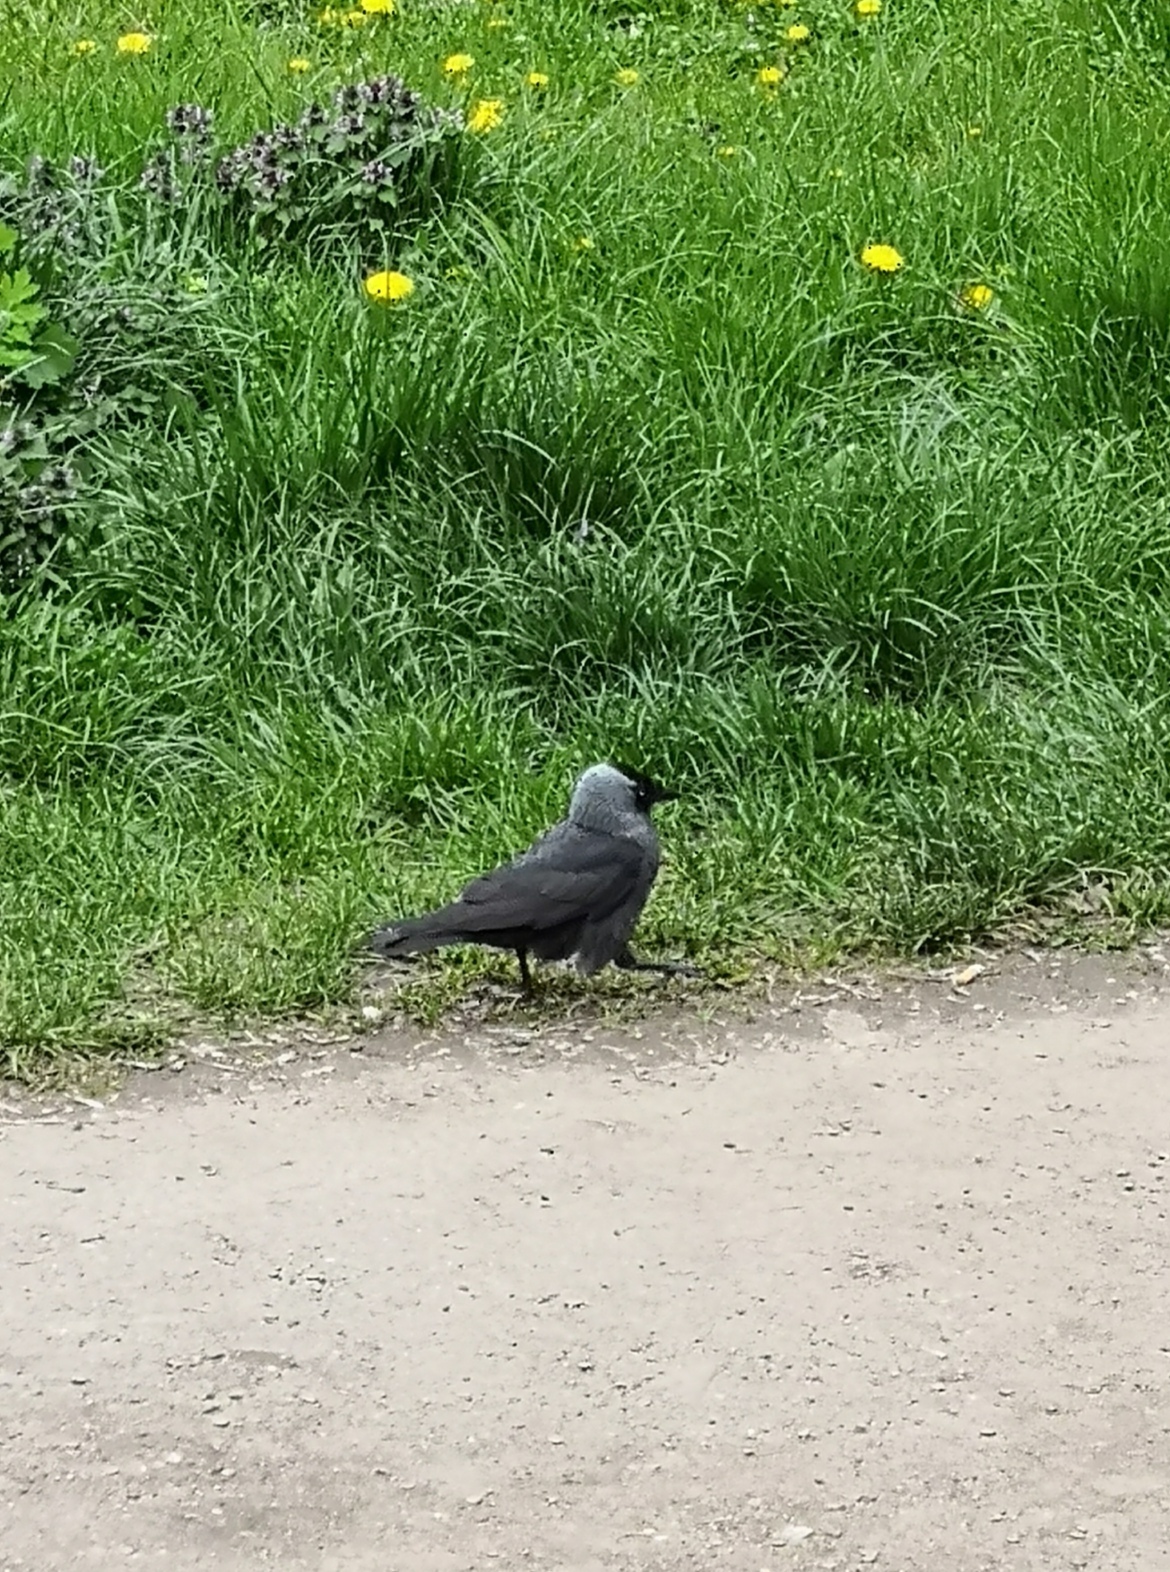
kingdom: Animalia
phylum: Chordata
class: Aves
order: Passeriformes
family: Corvidae
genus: Coloeus
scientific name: Coloeus monedula
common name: Western jackdaw
